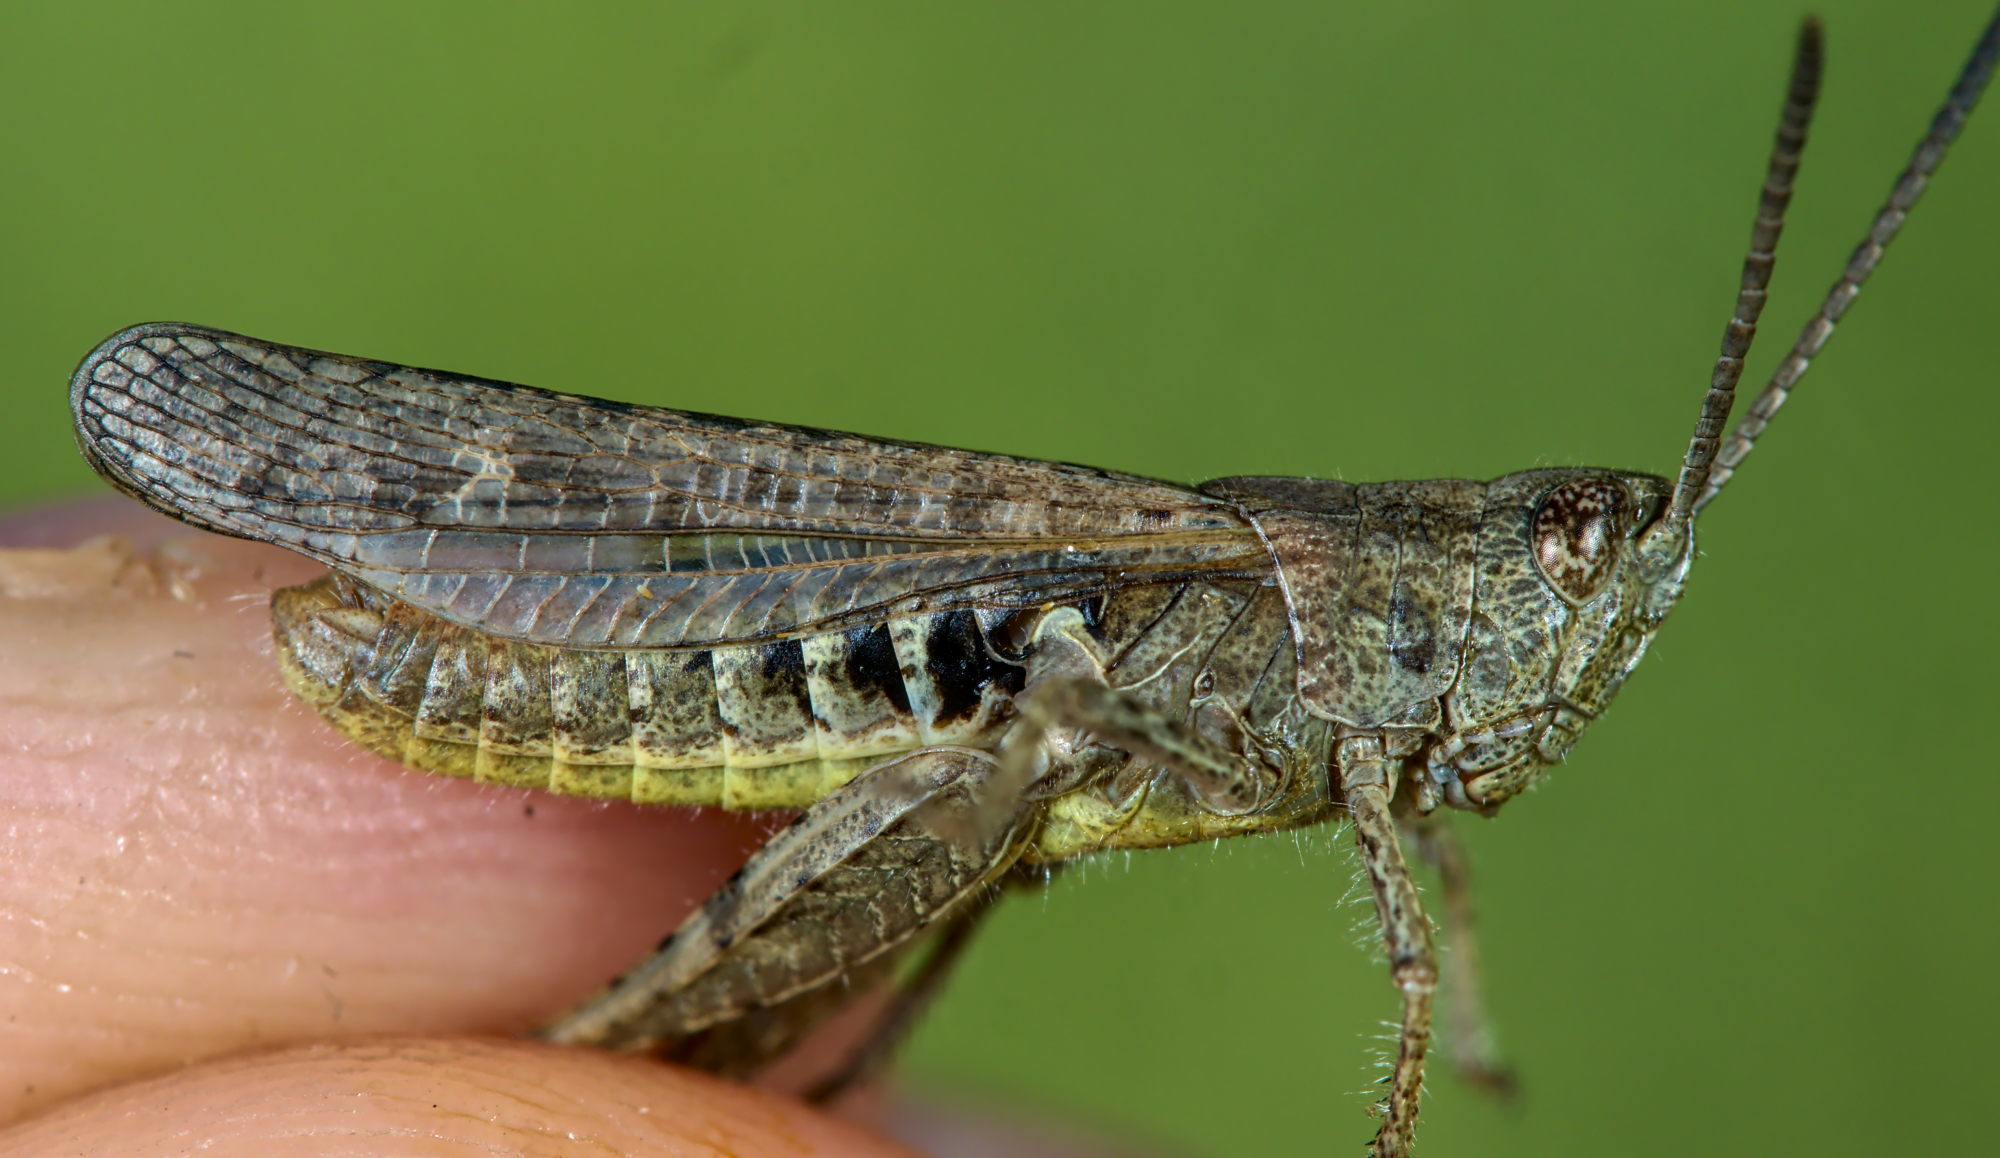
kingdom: Animalia
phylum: Arthropoda
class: Insecta
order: Orthoptera
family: Acrididae
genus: Chorthippus
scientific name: Chorthippus biguttulus
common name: Bow-winged grasshopper
